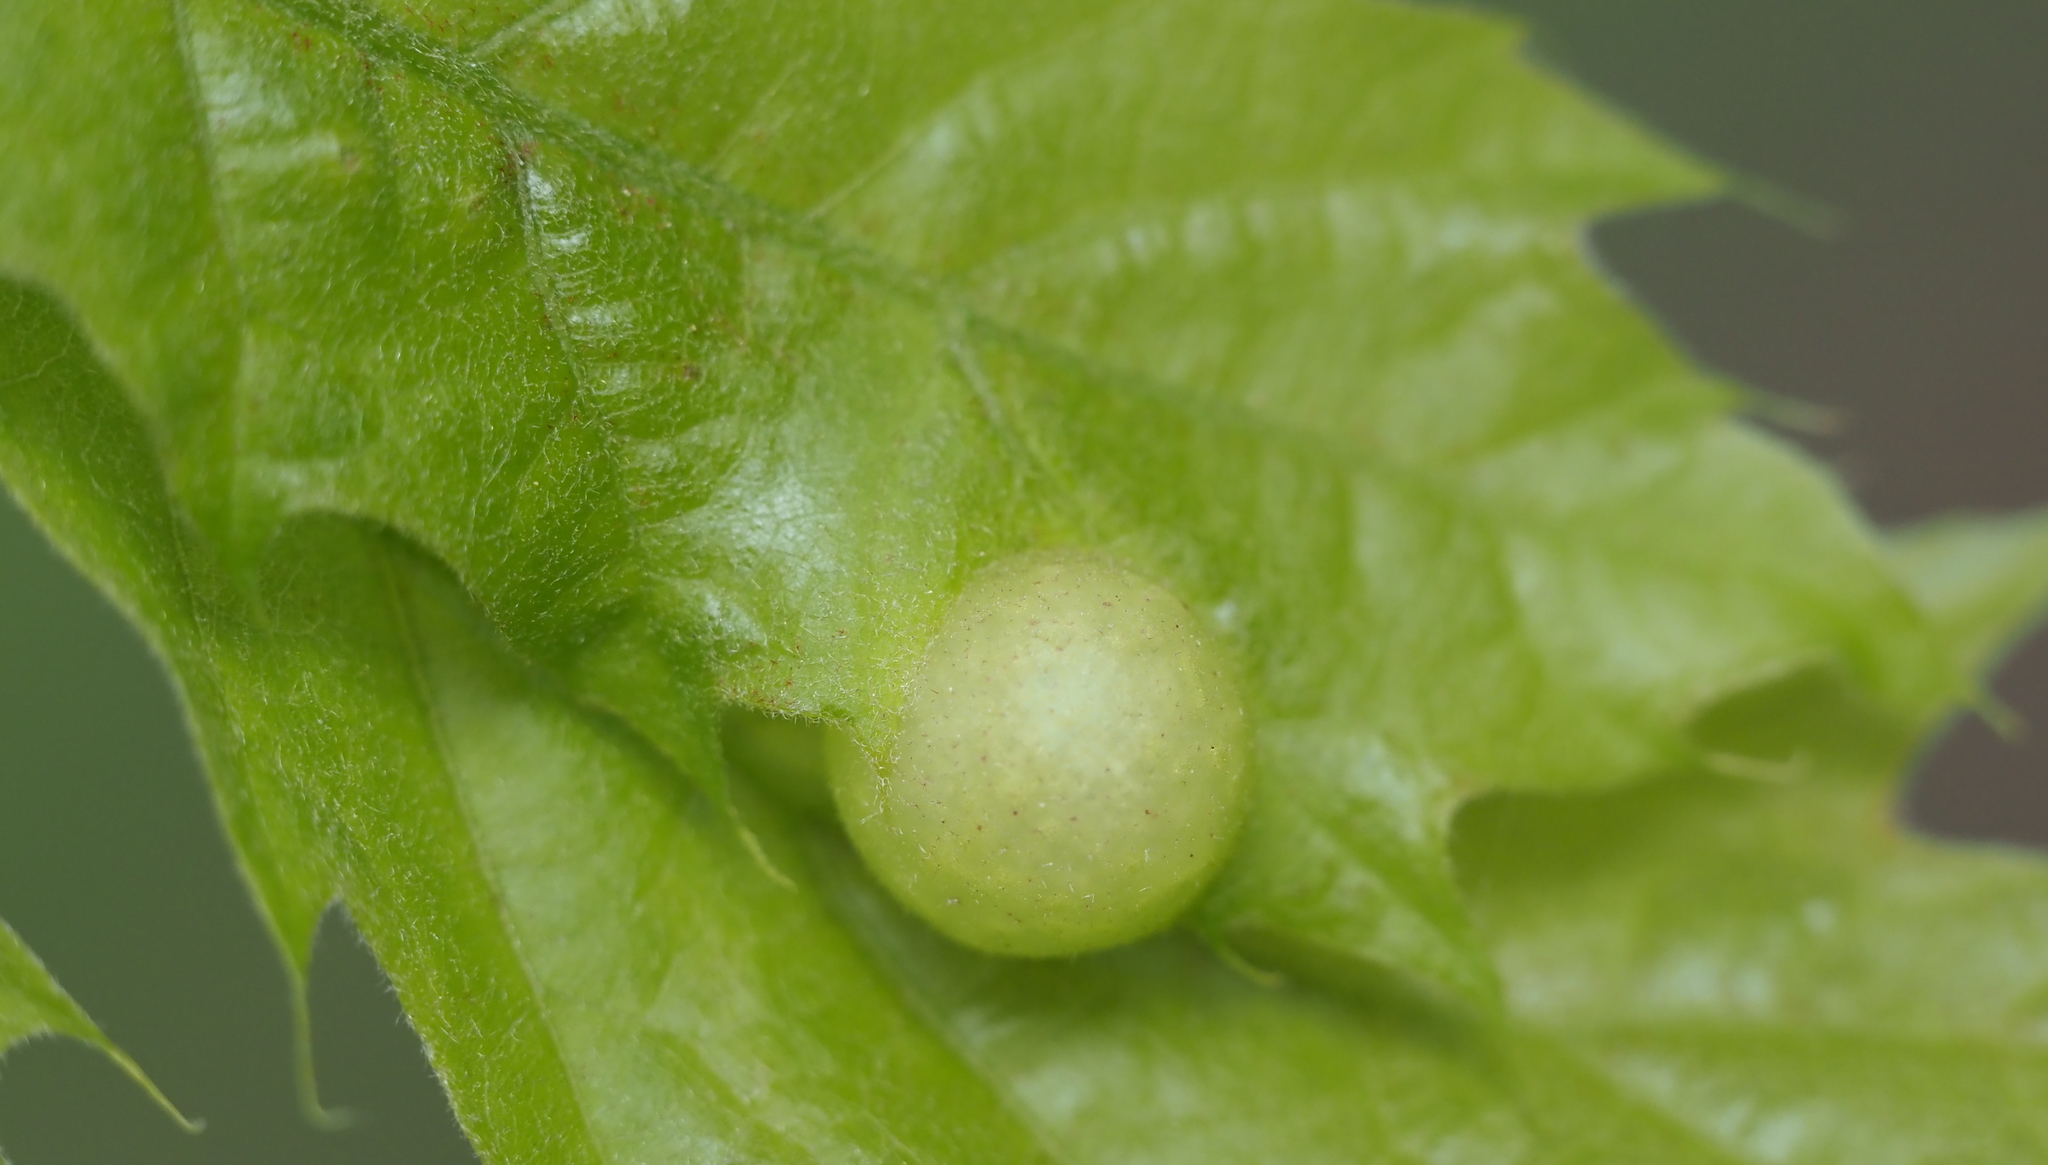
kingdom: Animalia
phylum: Arthropoda
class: Insecta
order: Hymenoptera
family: Cynipidae
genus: Amphibolips
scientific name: Amphibolips
